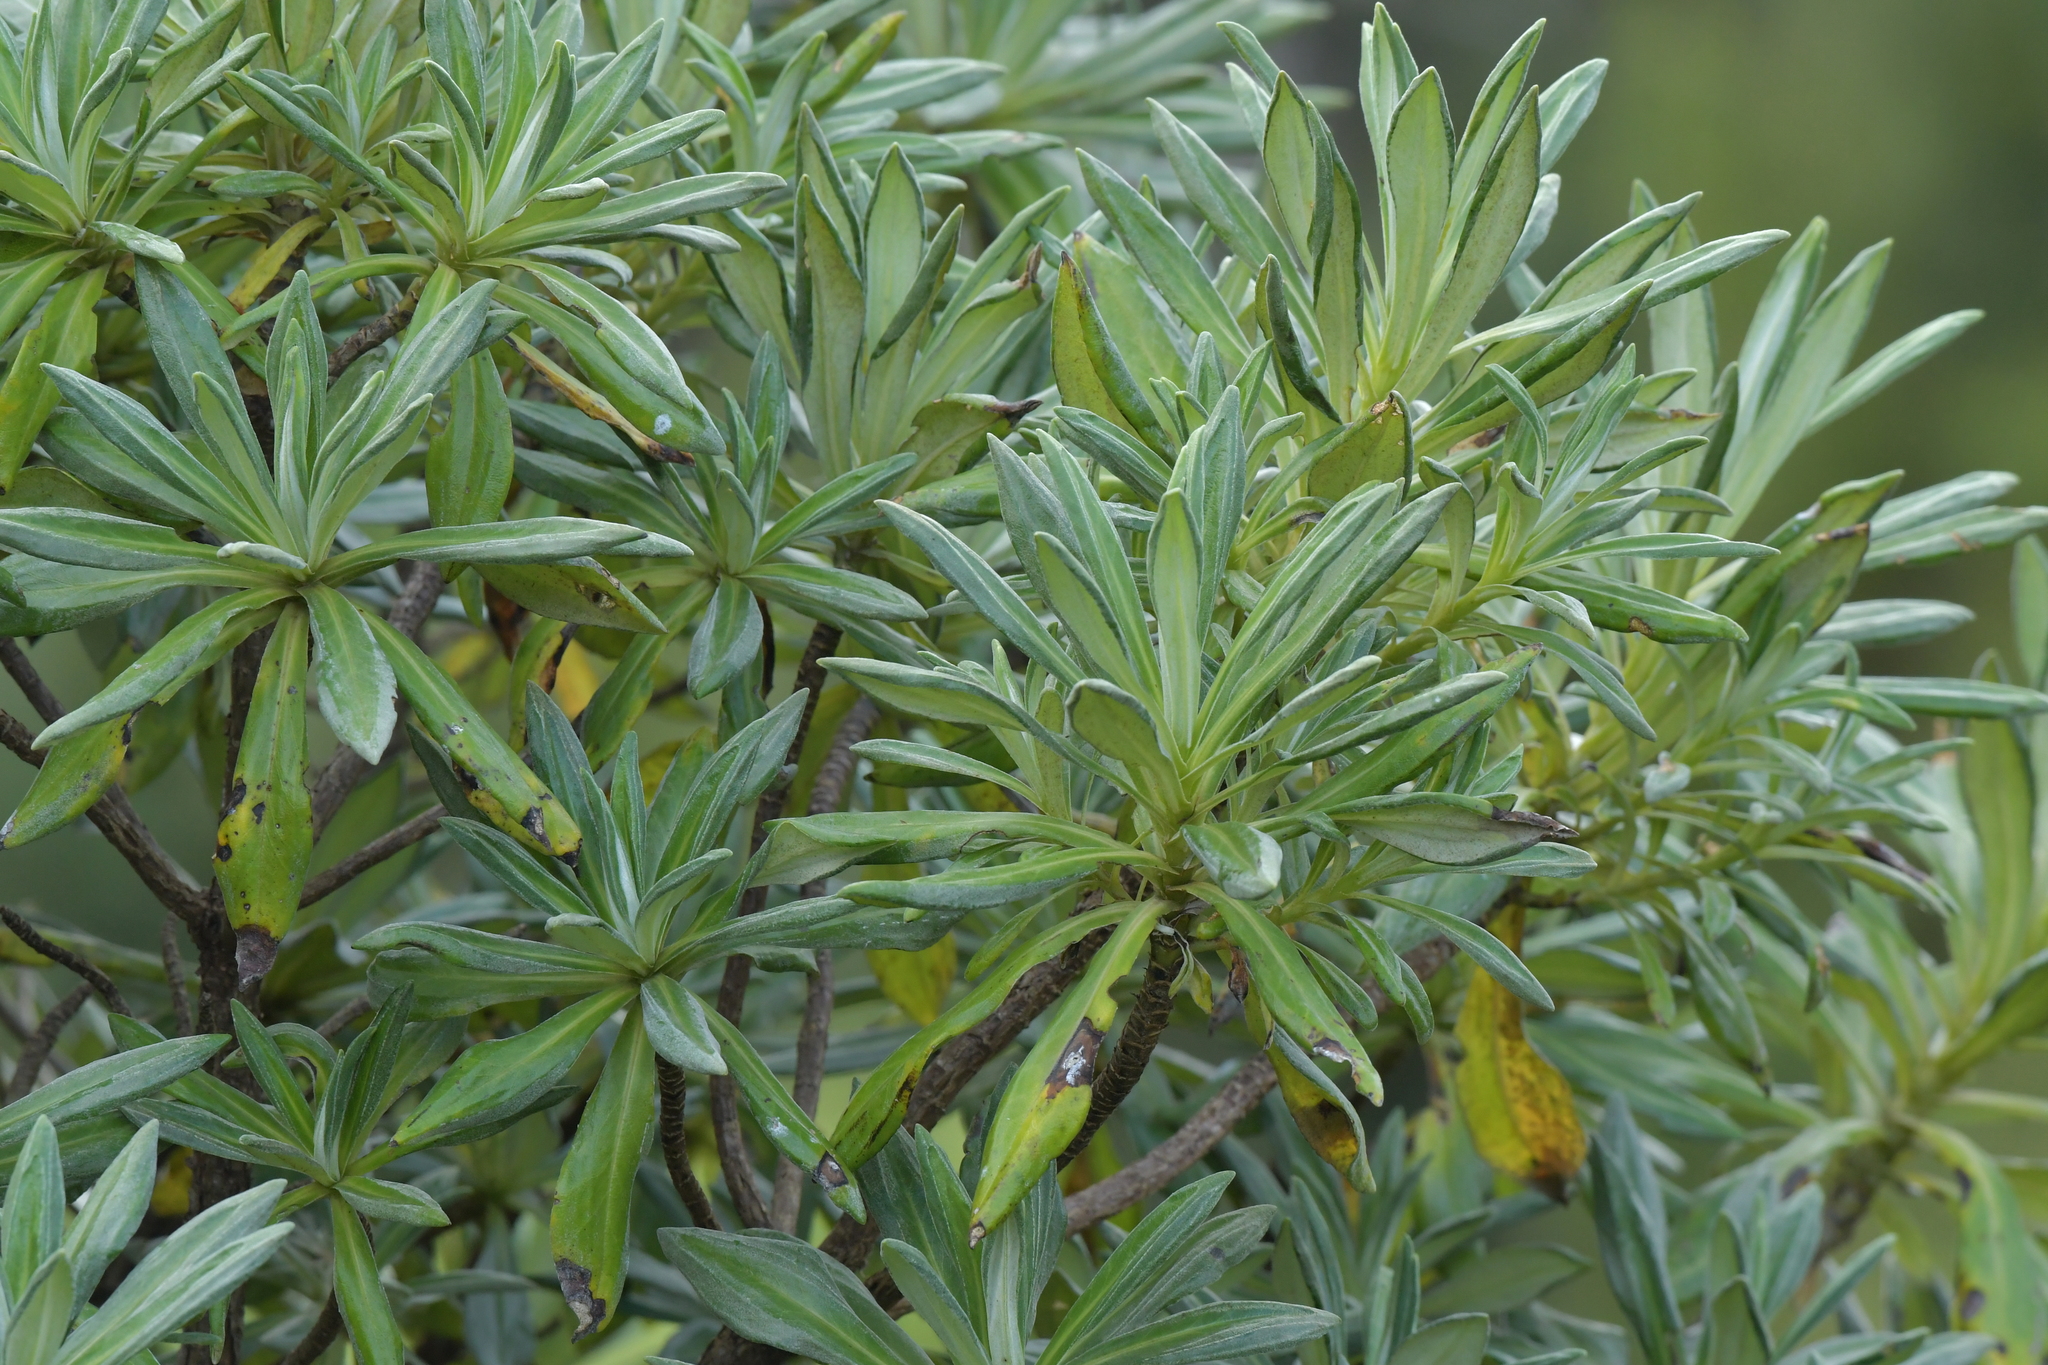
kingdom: Plantae
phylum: Tracheophyta
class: Magnoliopsida
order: Asterales
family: Asteraceae
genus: Brachyglottis
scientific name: Brachyglottis huntii
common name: Chatham island christmas tree
